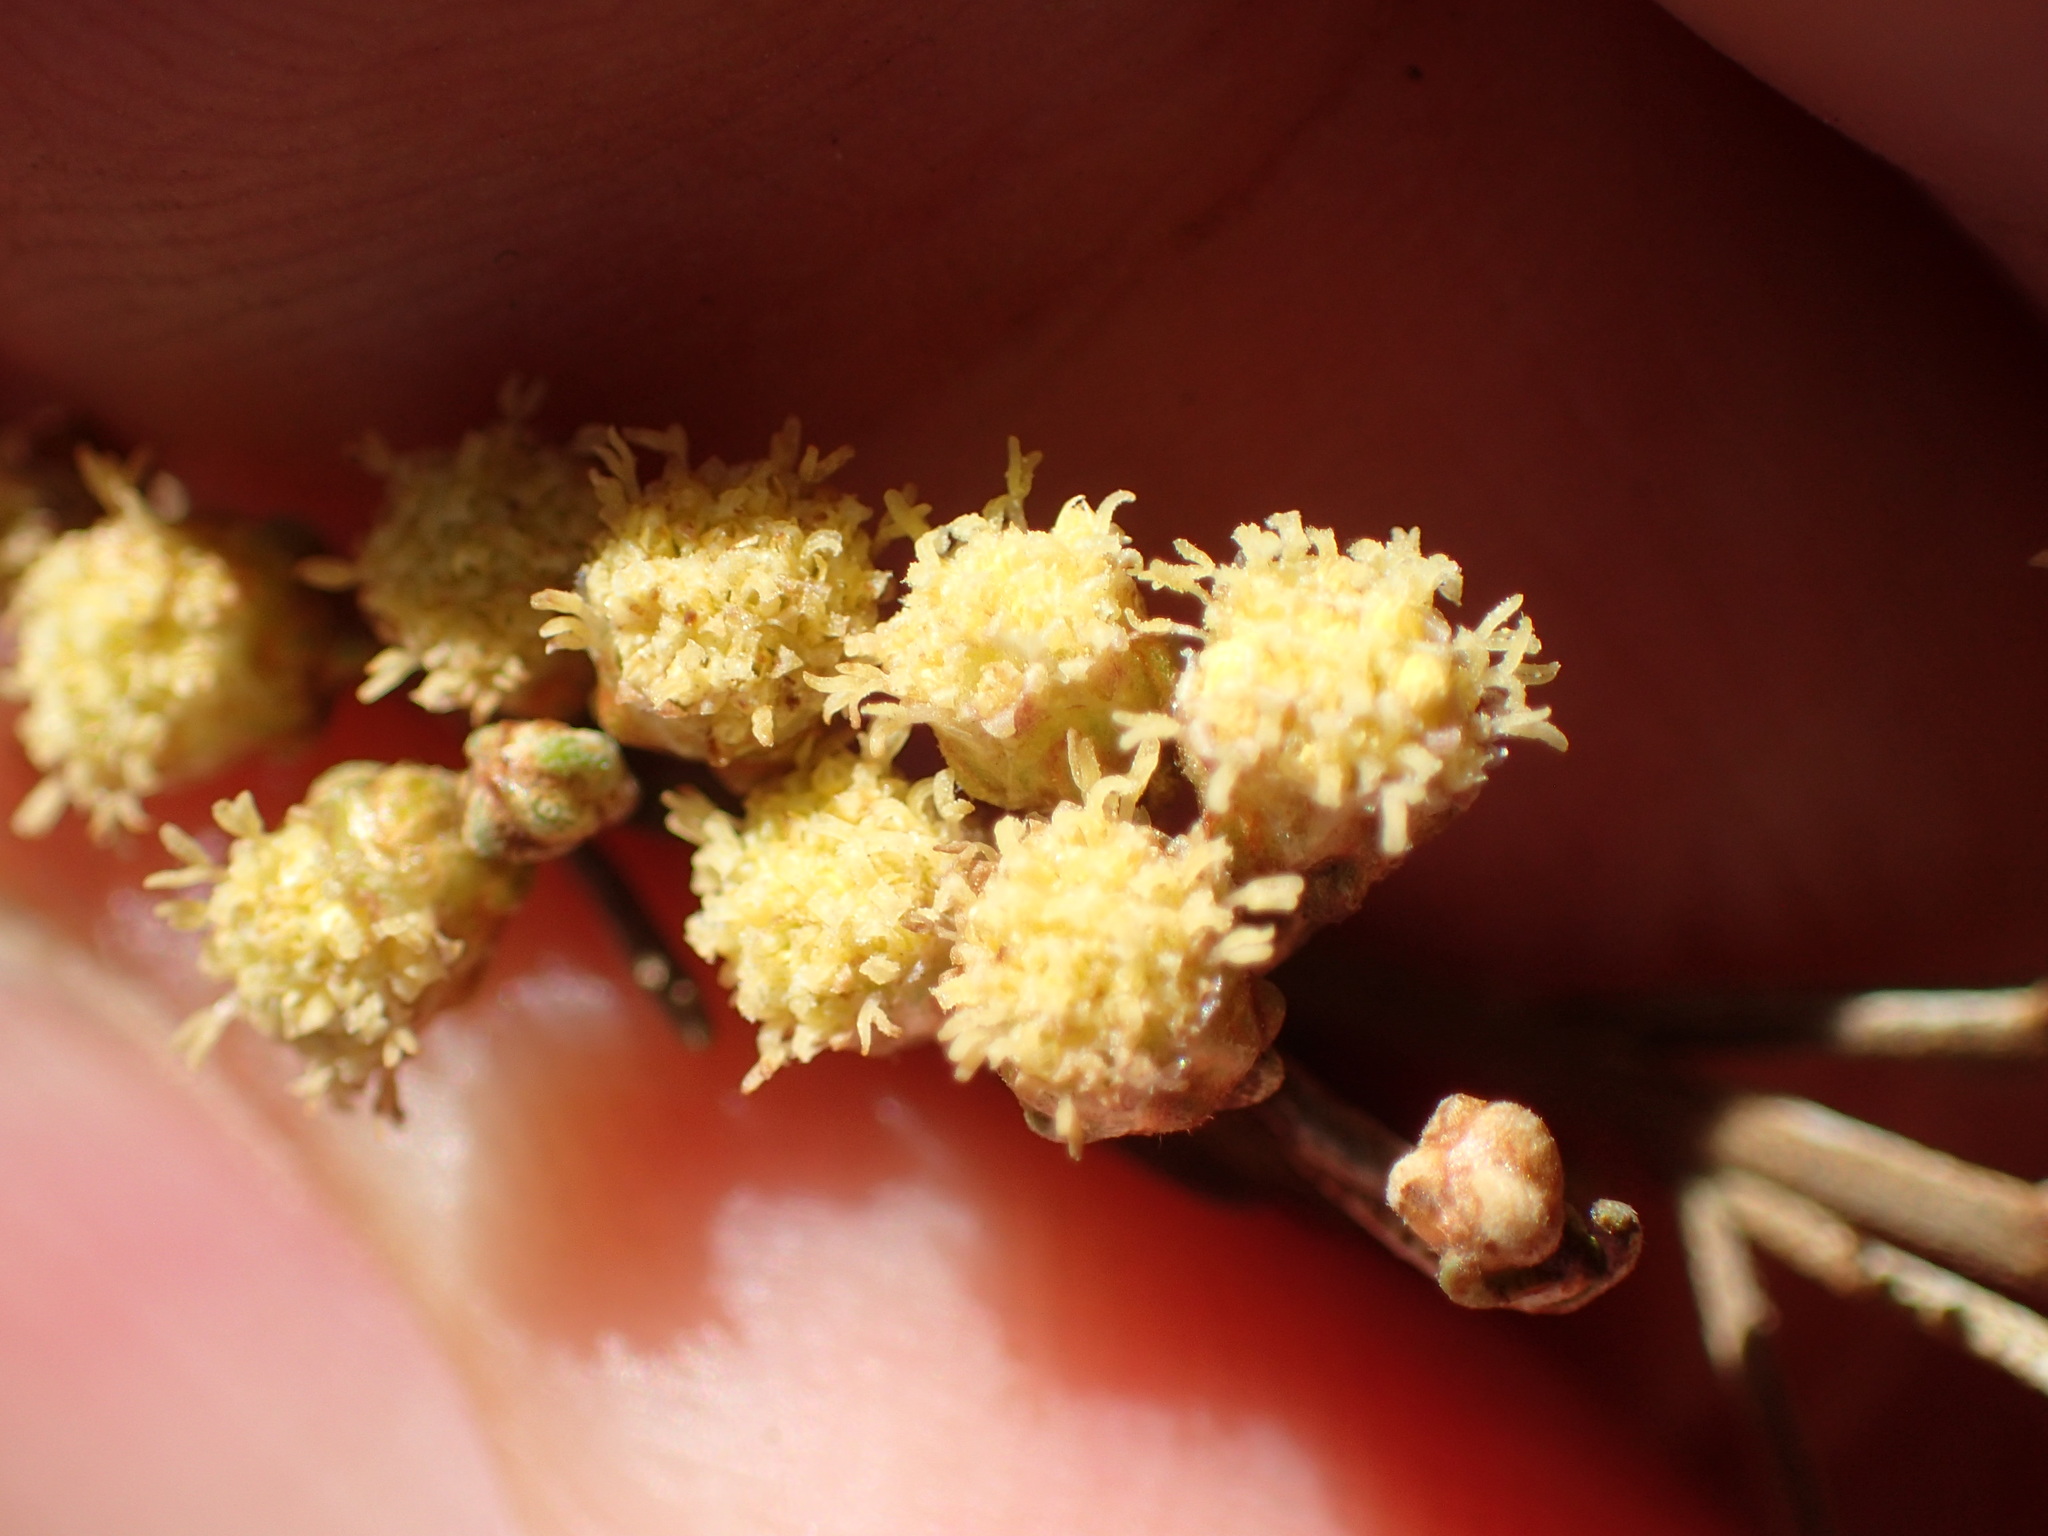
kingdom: Plantae
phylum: Tracheophyta
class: Magnoliopsida
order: Asterales
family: Asteraceae
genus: Artemisia
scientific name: Artemisia californica
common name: California sagebrush
